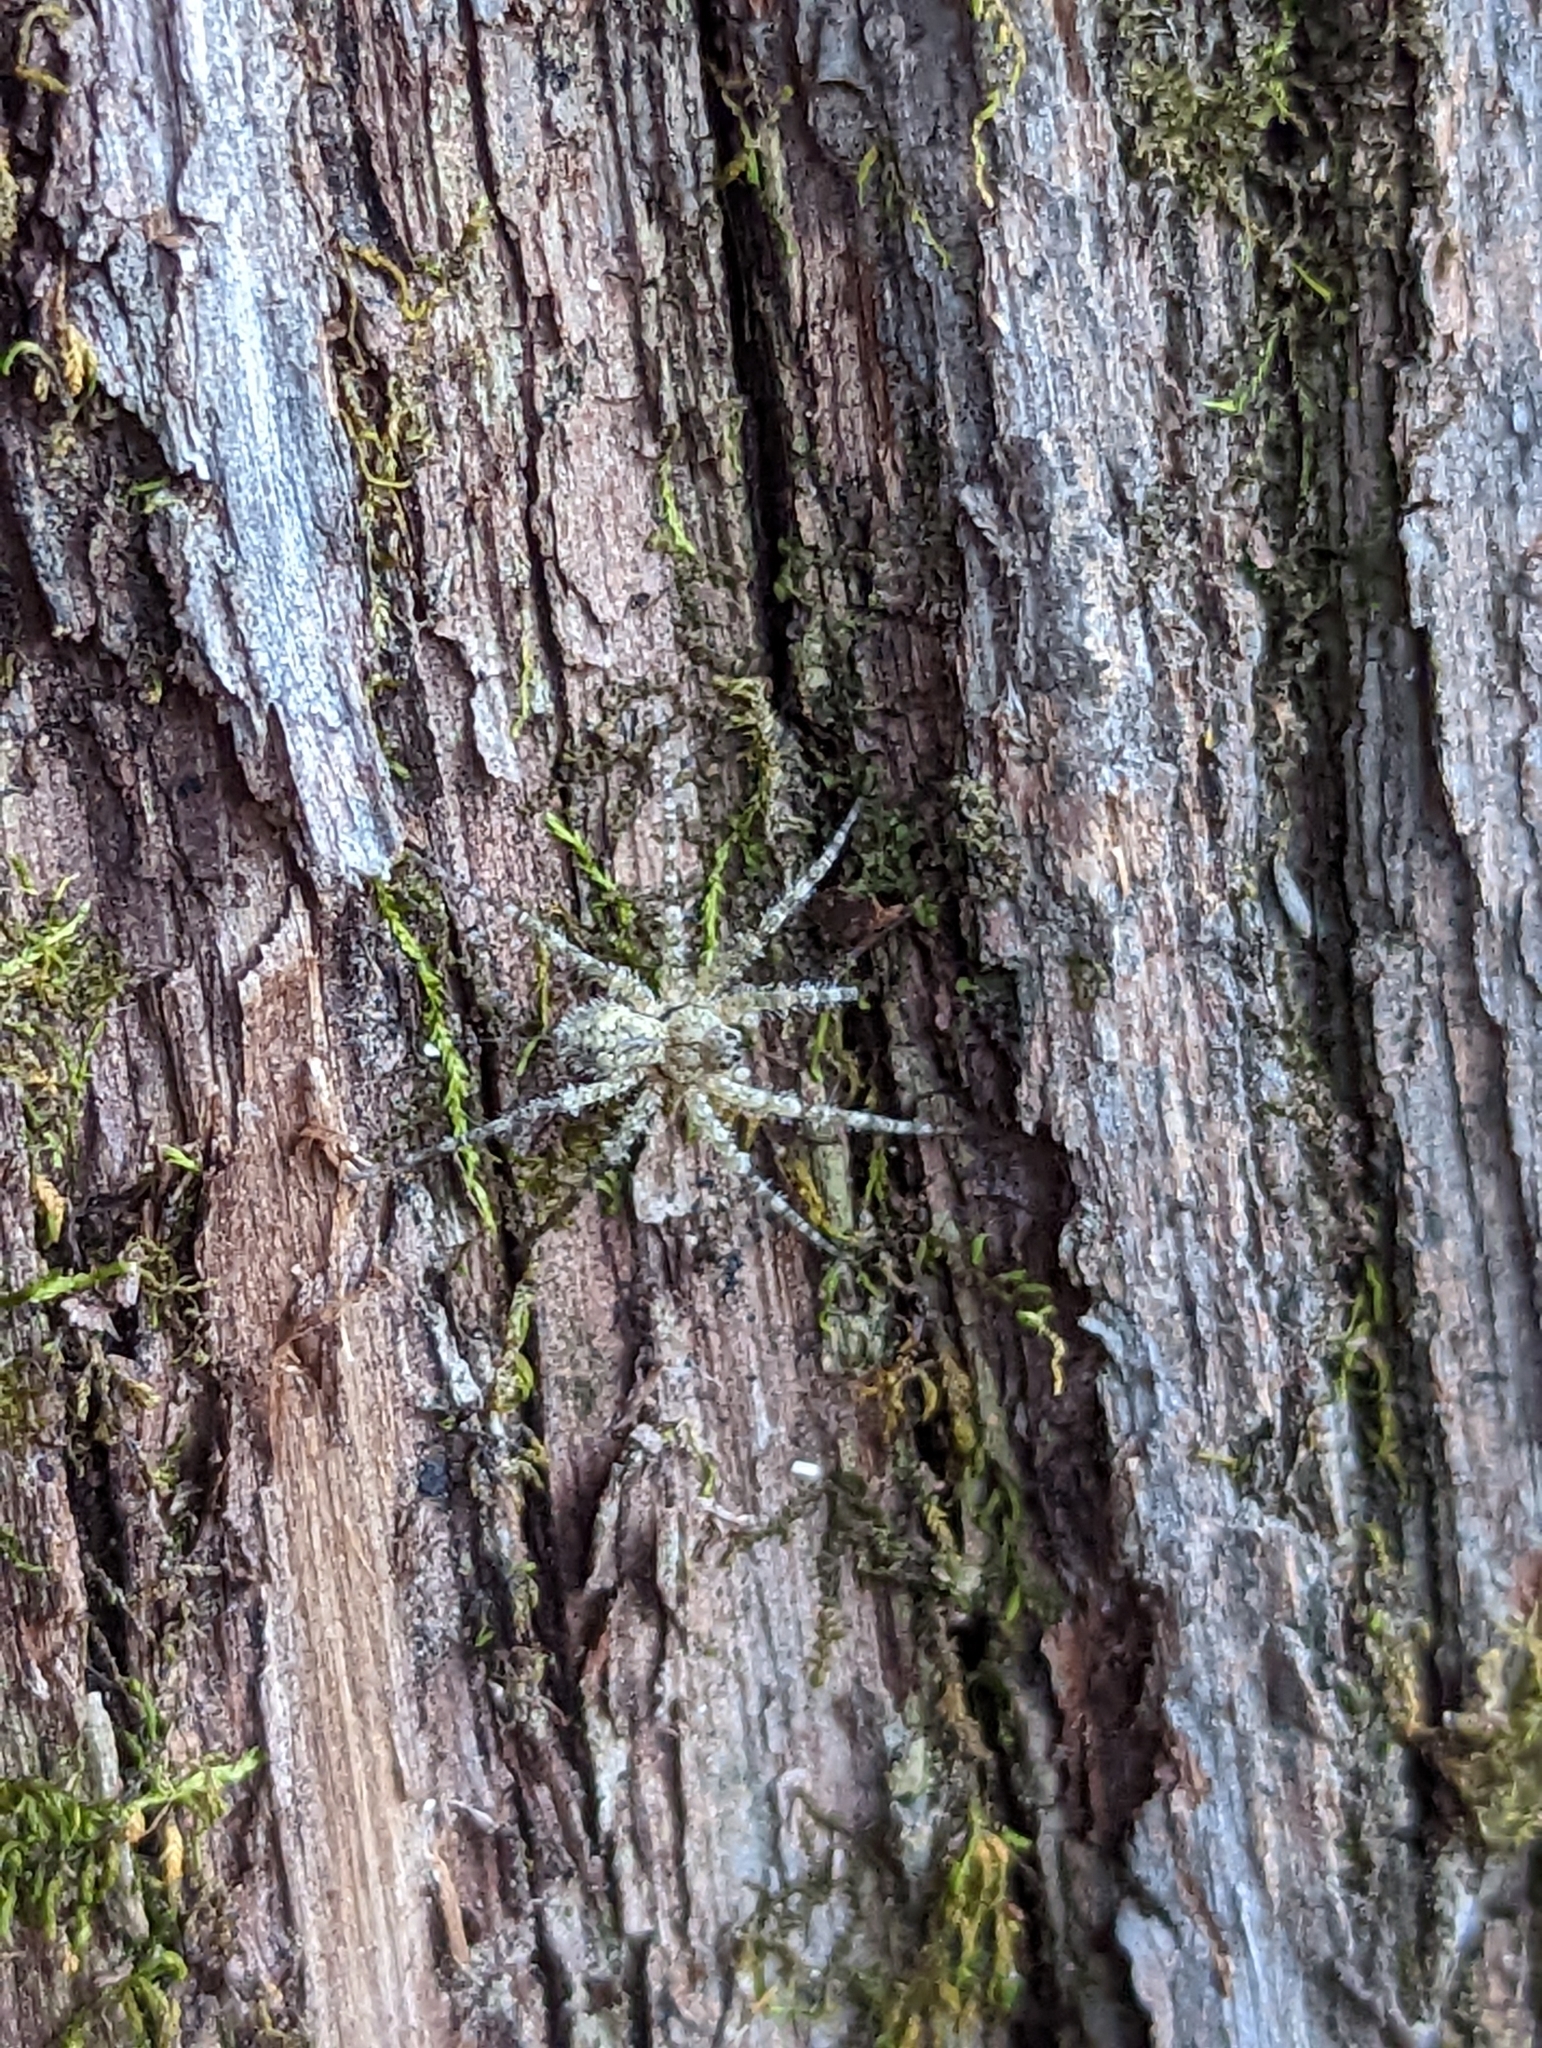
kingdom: Animalia
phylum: Arthropoda
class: Arachnida
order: Araneae
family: Pisauridae
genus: Dolomedes
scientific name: Dolomedes albineus
